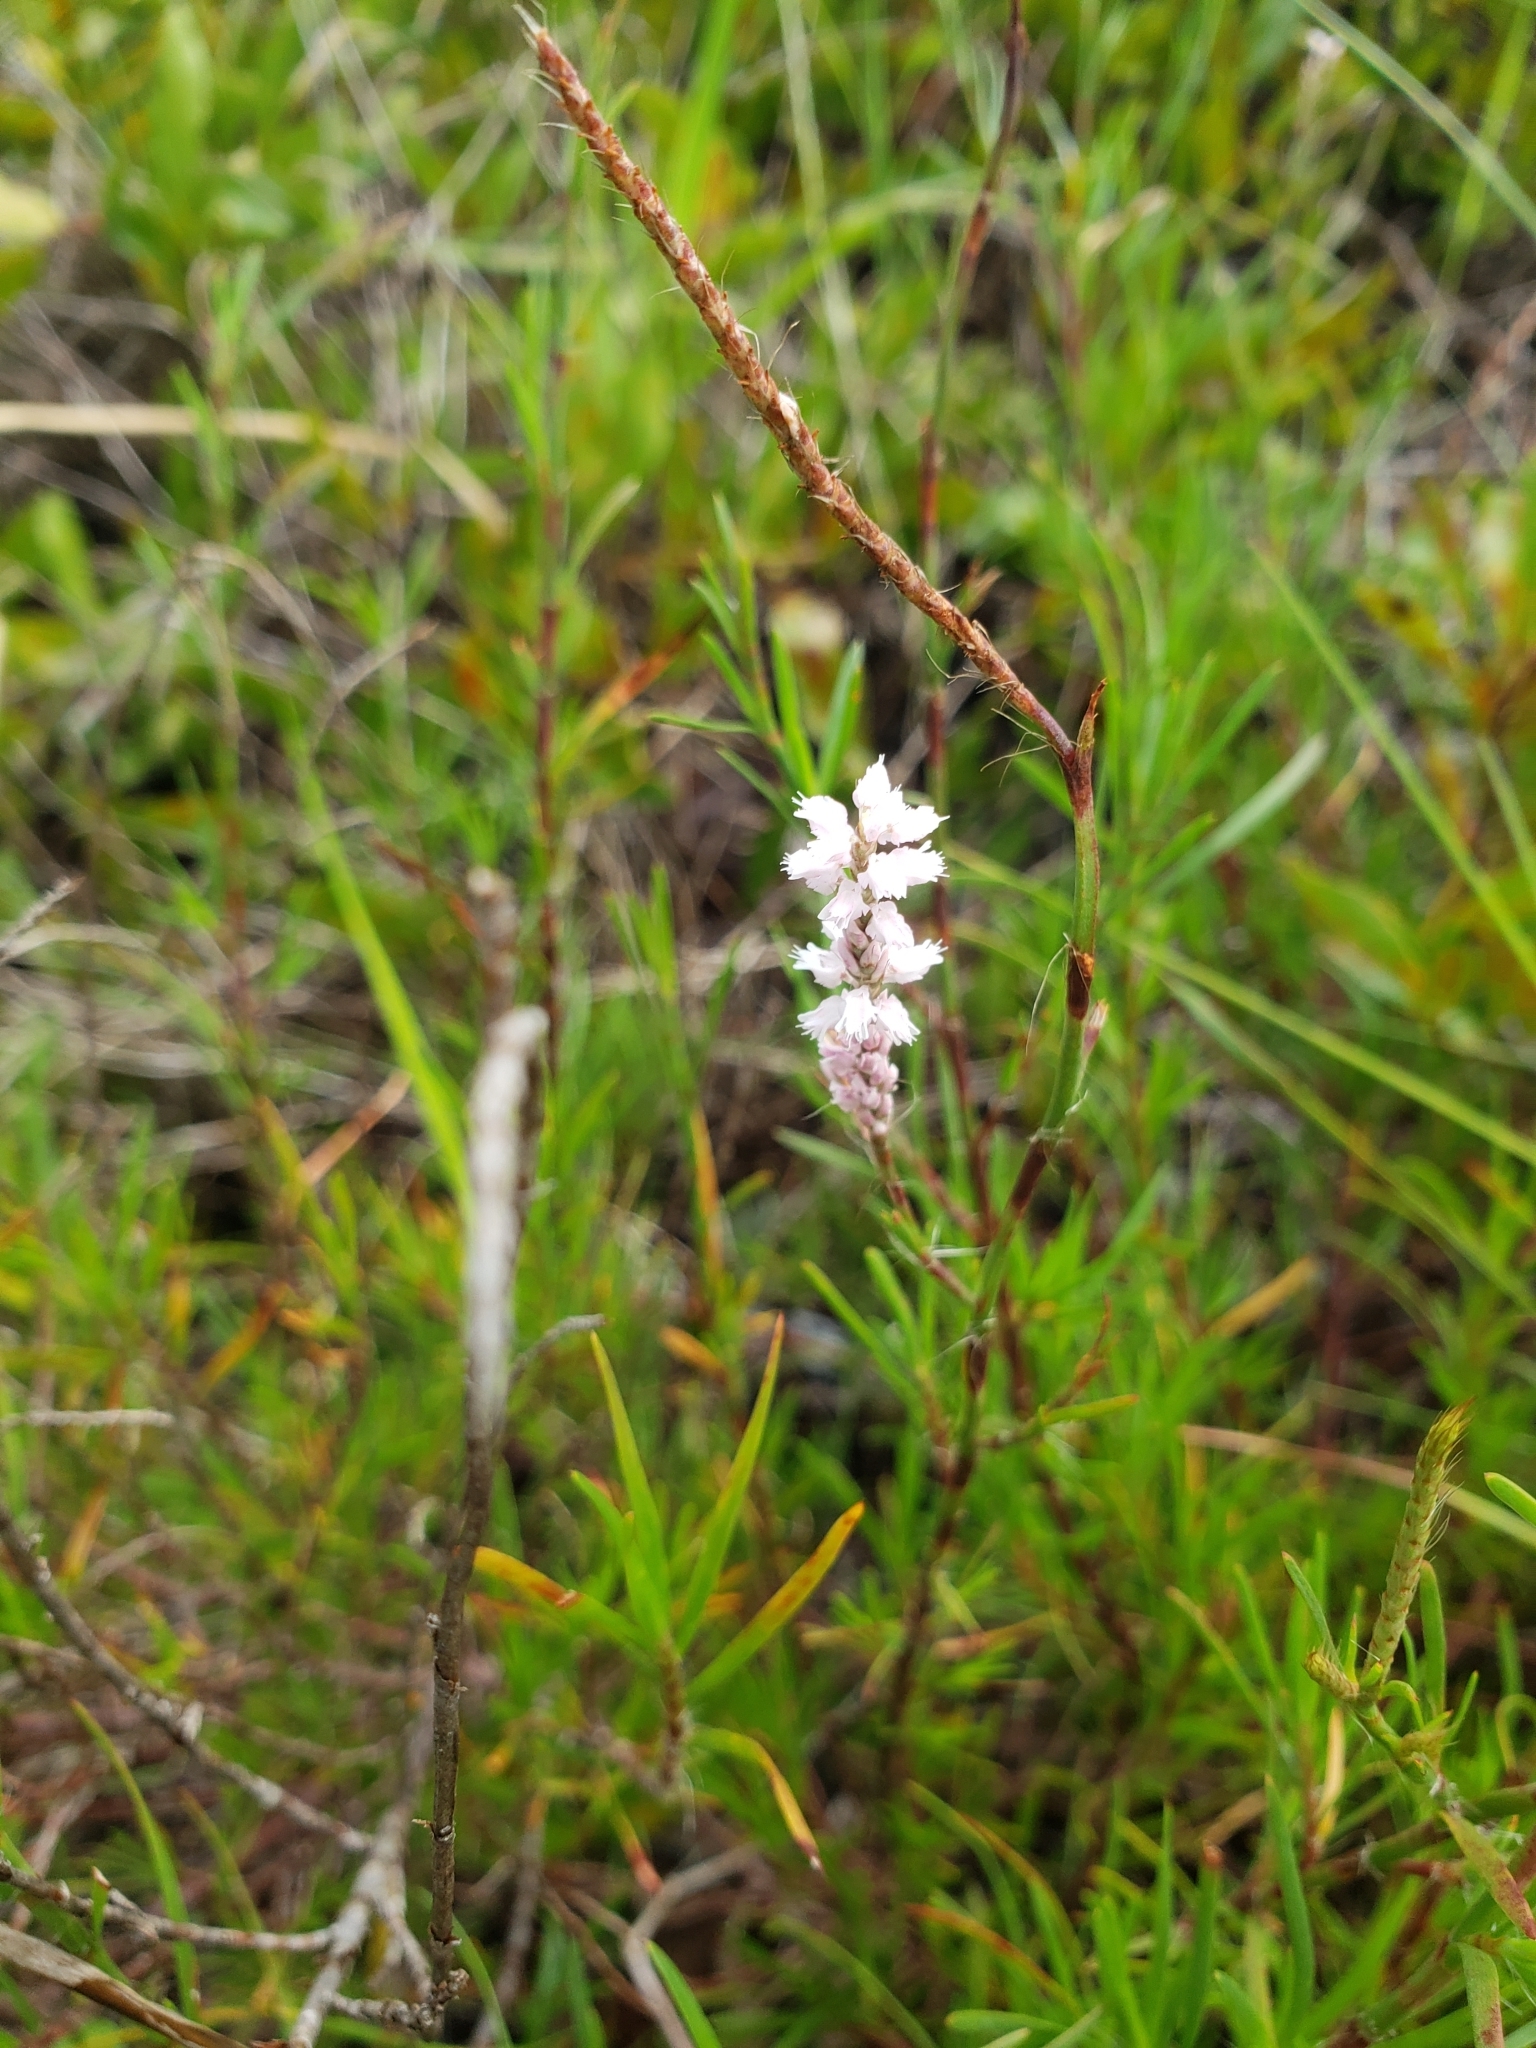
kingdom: Plantae
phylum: Tracheophyta
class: Magnoliopsida
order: Caryophyllales
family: Polygonaceae
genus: Polygonella
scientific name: Polygonella robusta
